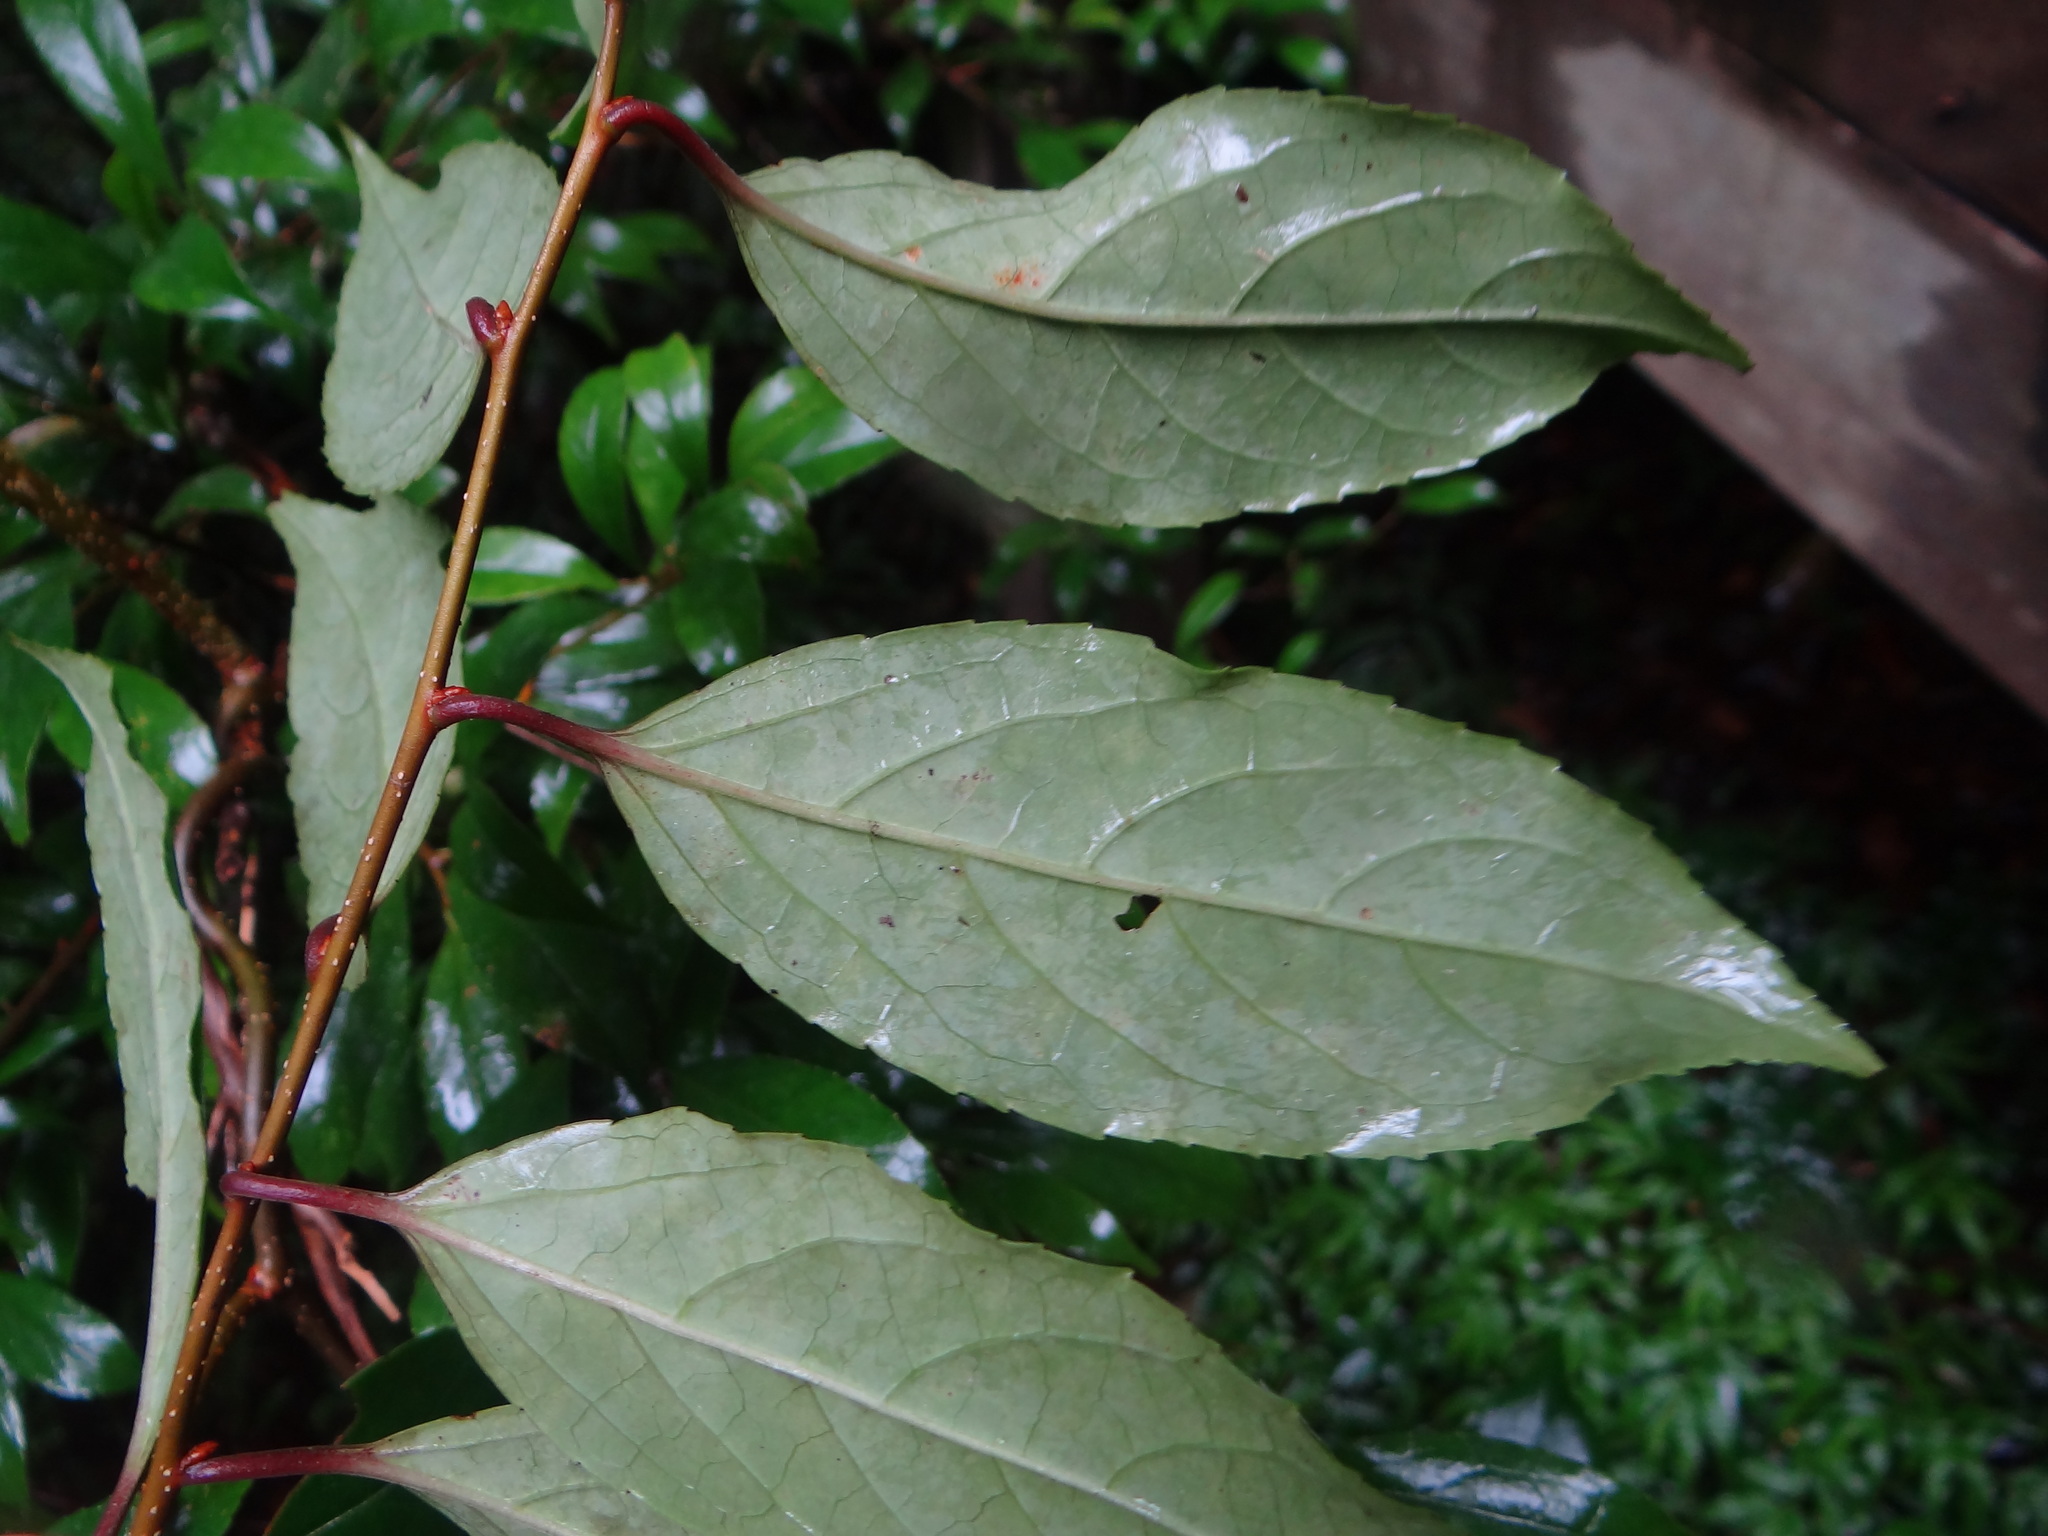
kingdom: Plantae
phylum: Tracheophyta
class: Magnoliopsida
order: Celastrales
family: Celastraceae
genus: Celastrus
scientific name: Celastrus punctatus
